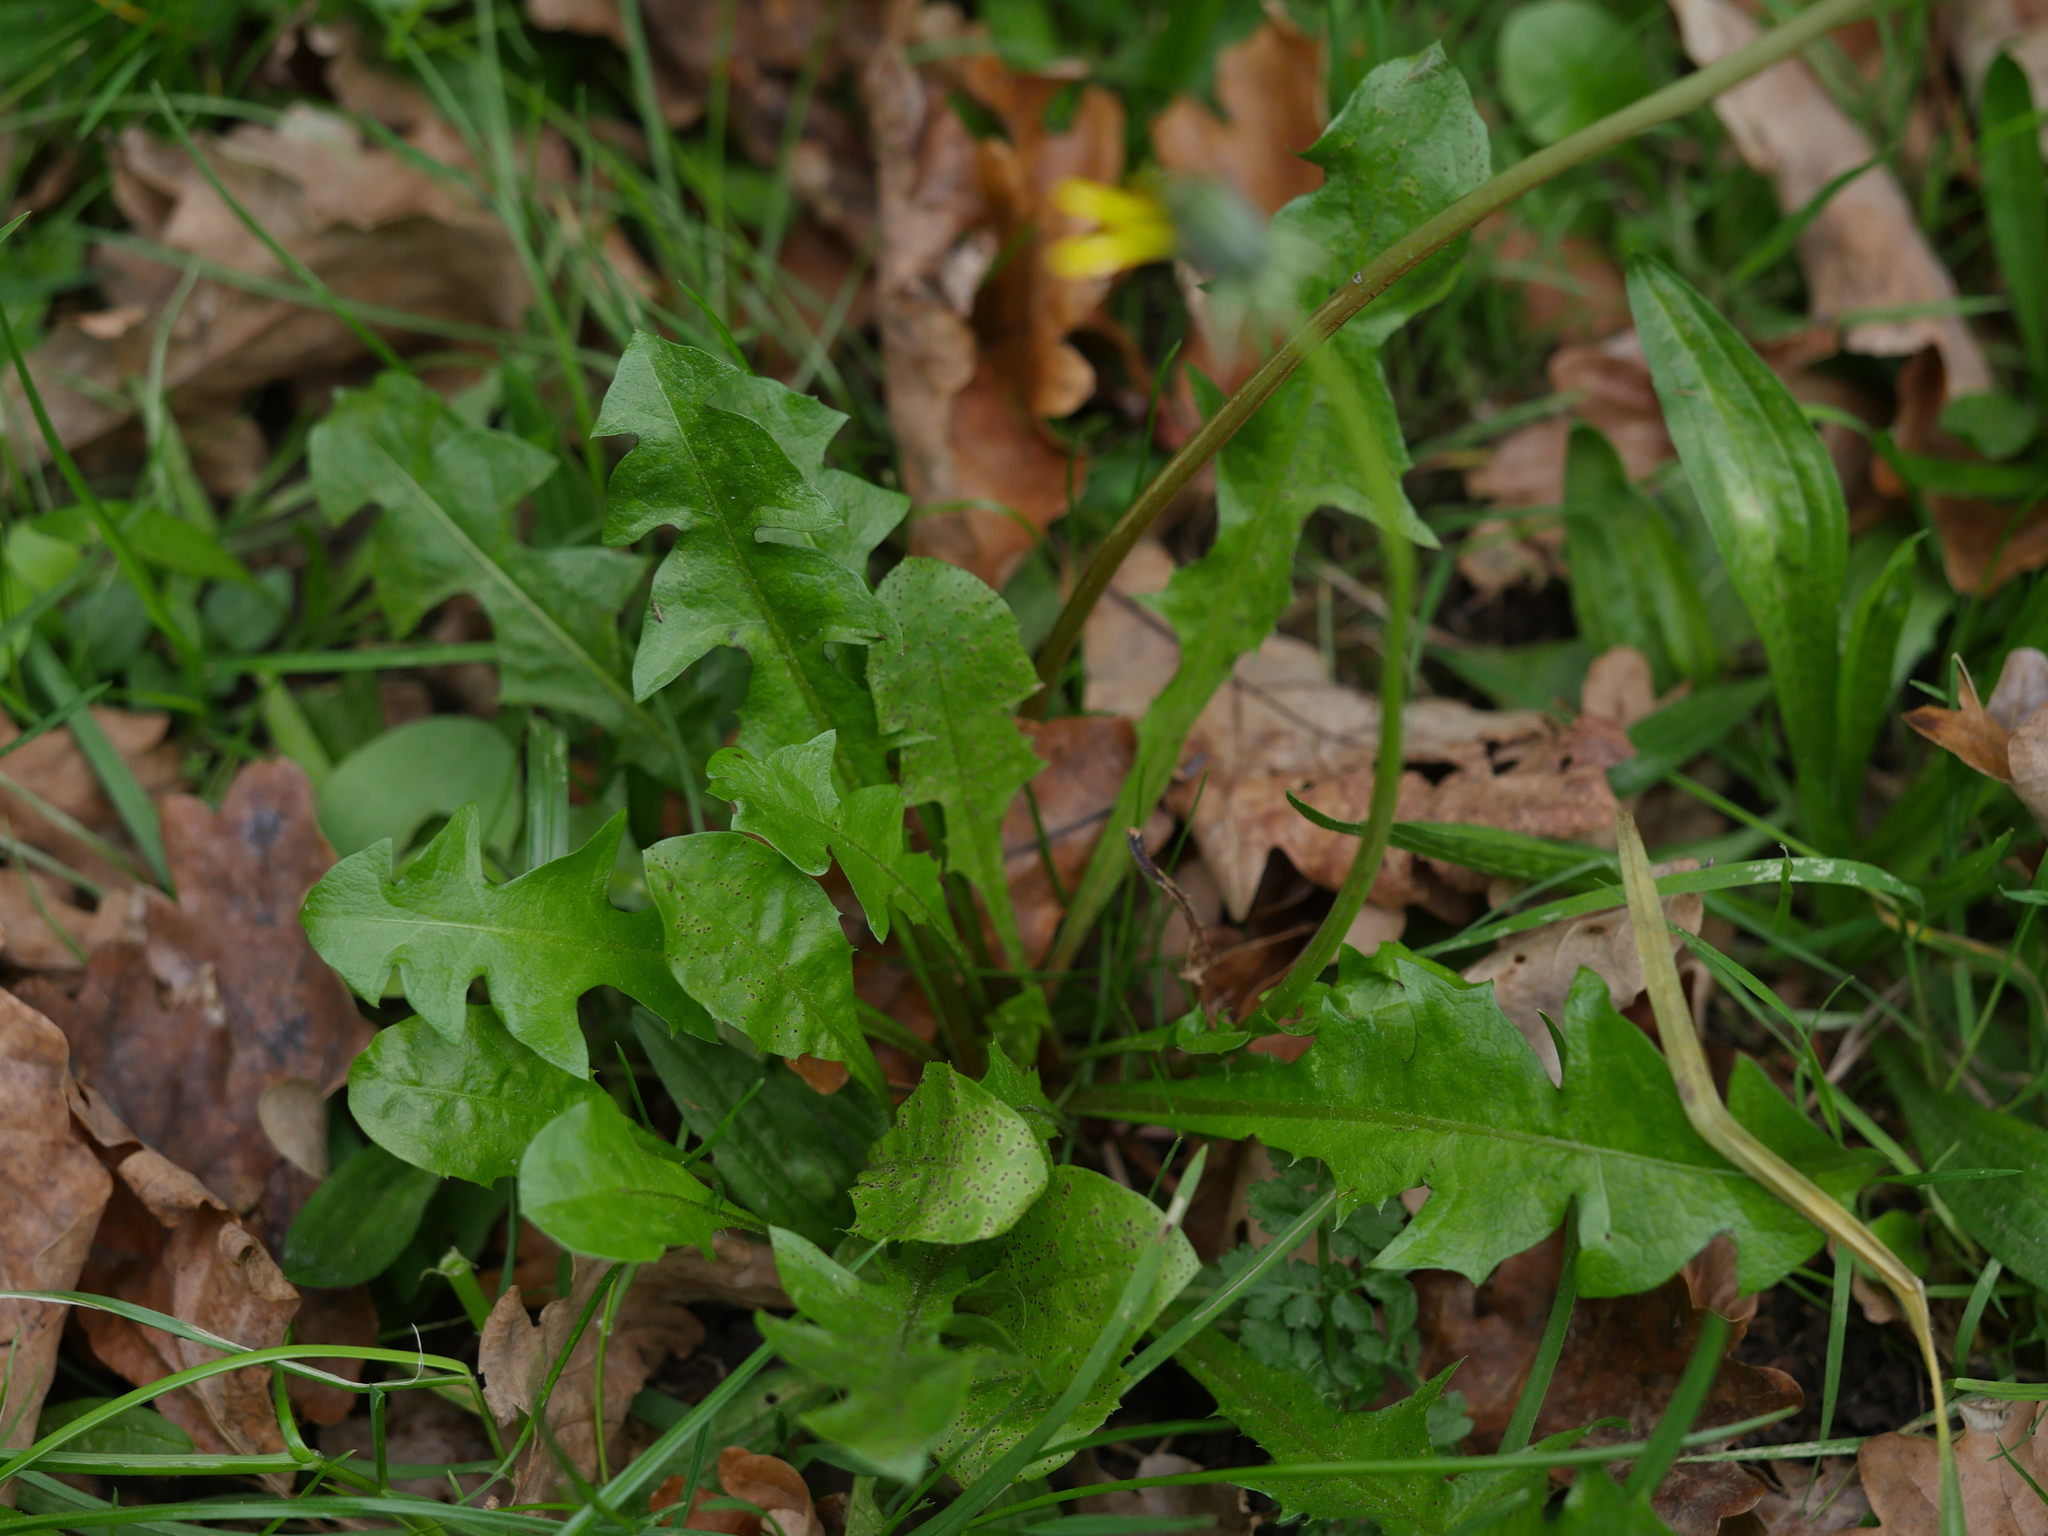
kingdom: Plantae
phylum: Tracheophyta
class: Magnoliopsida
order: Asterales
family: Asteraceae
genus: Taraxacum
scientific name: Taraxacum officinale
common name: Common dandelion
